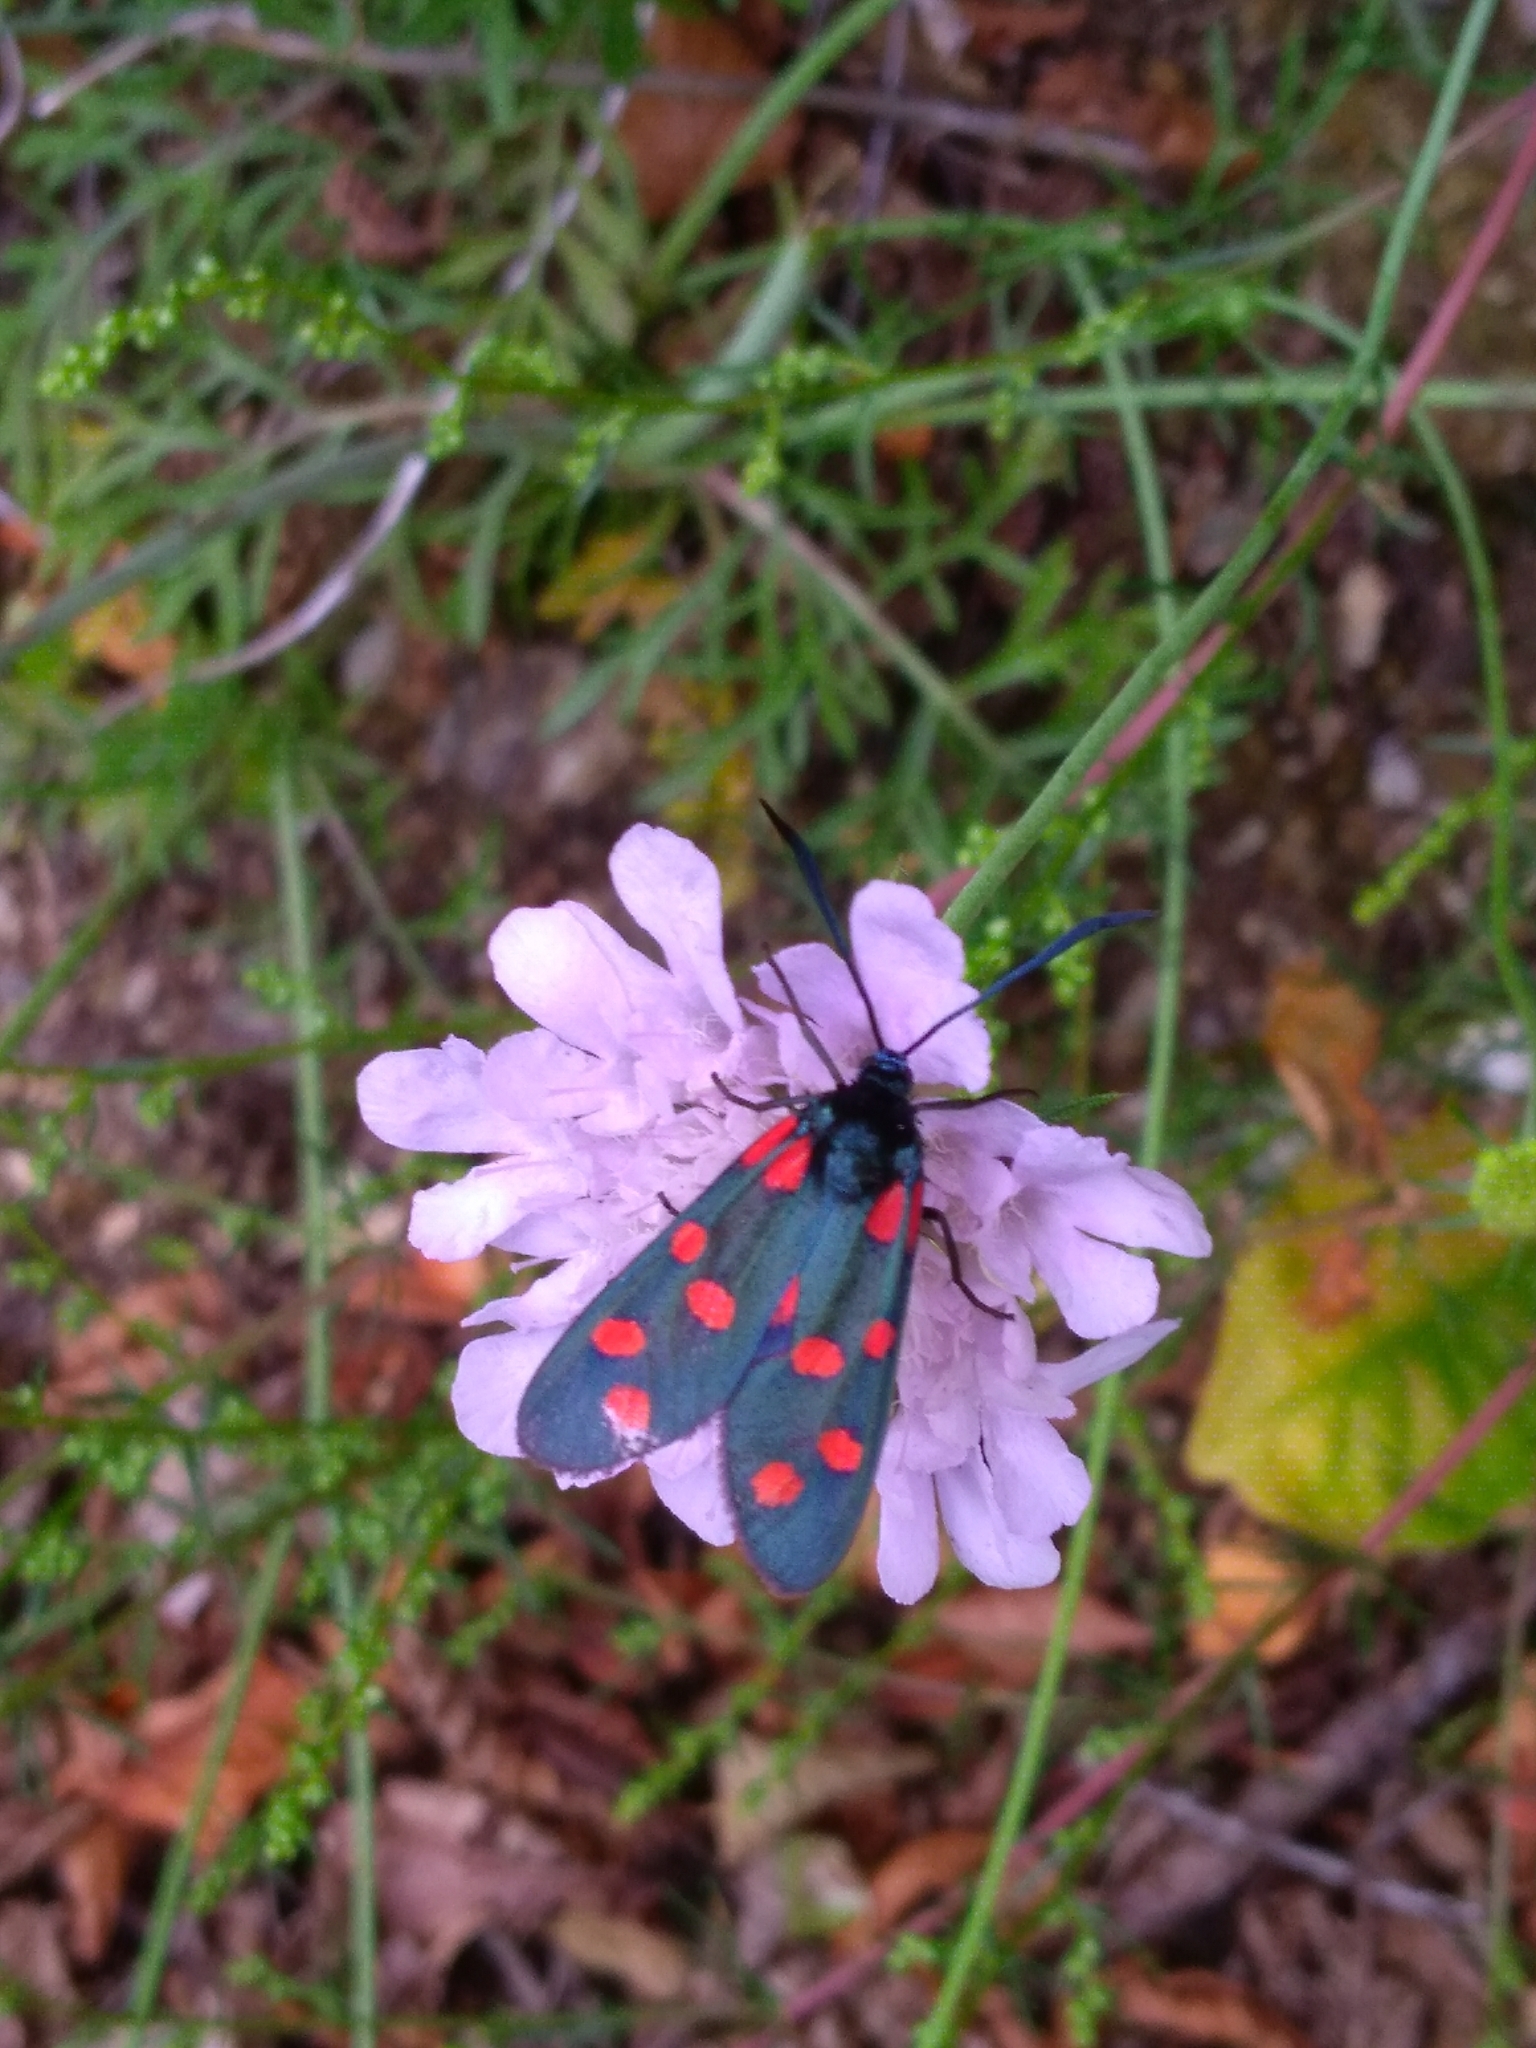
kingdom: Animalia
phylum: Arthropoda
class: Insecta
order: Lepidoptera
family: Zygaenidae
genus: Zygaena
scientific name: Zygaena transalpina
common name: Southern six spot burnet
